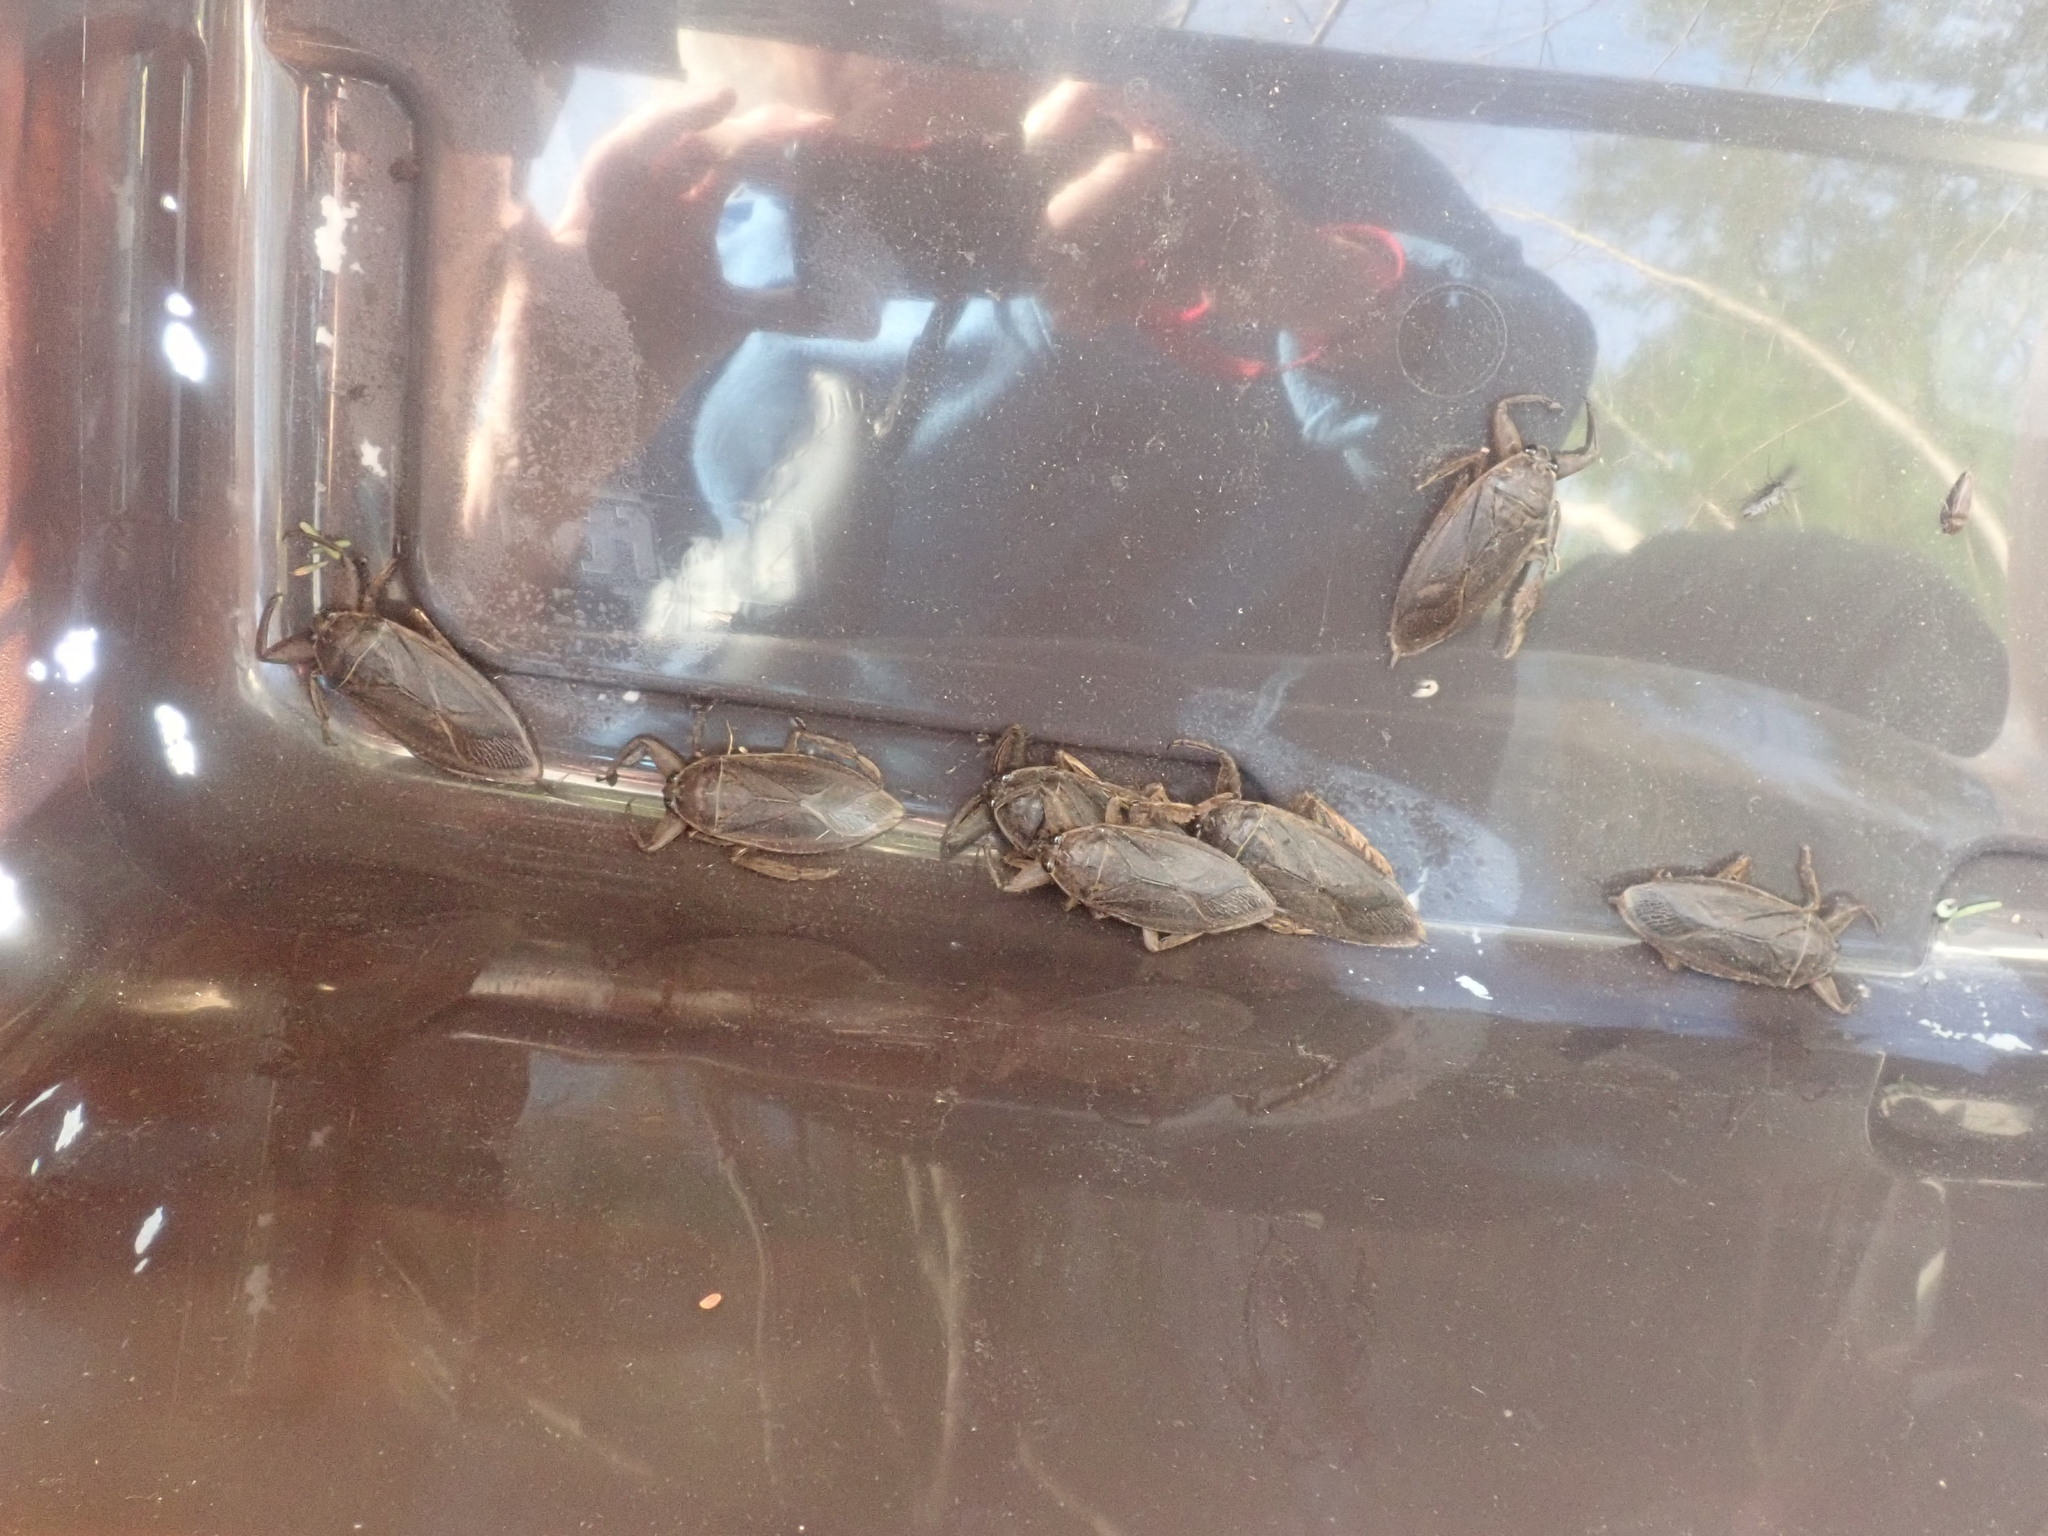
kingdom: Animalia
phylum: Arthropoda
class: Insecta
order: Hemiptera
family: Belostomatidae
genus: Lethocerus
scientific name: Lethocerus americanus
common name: Giant water bug
